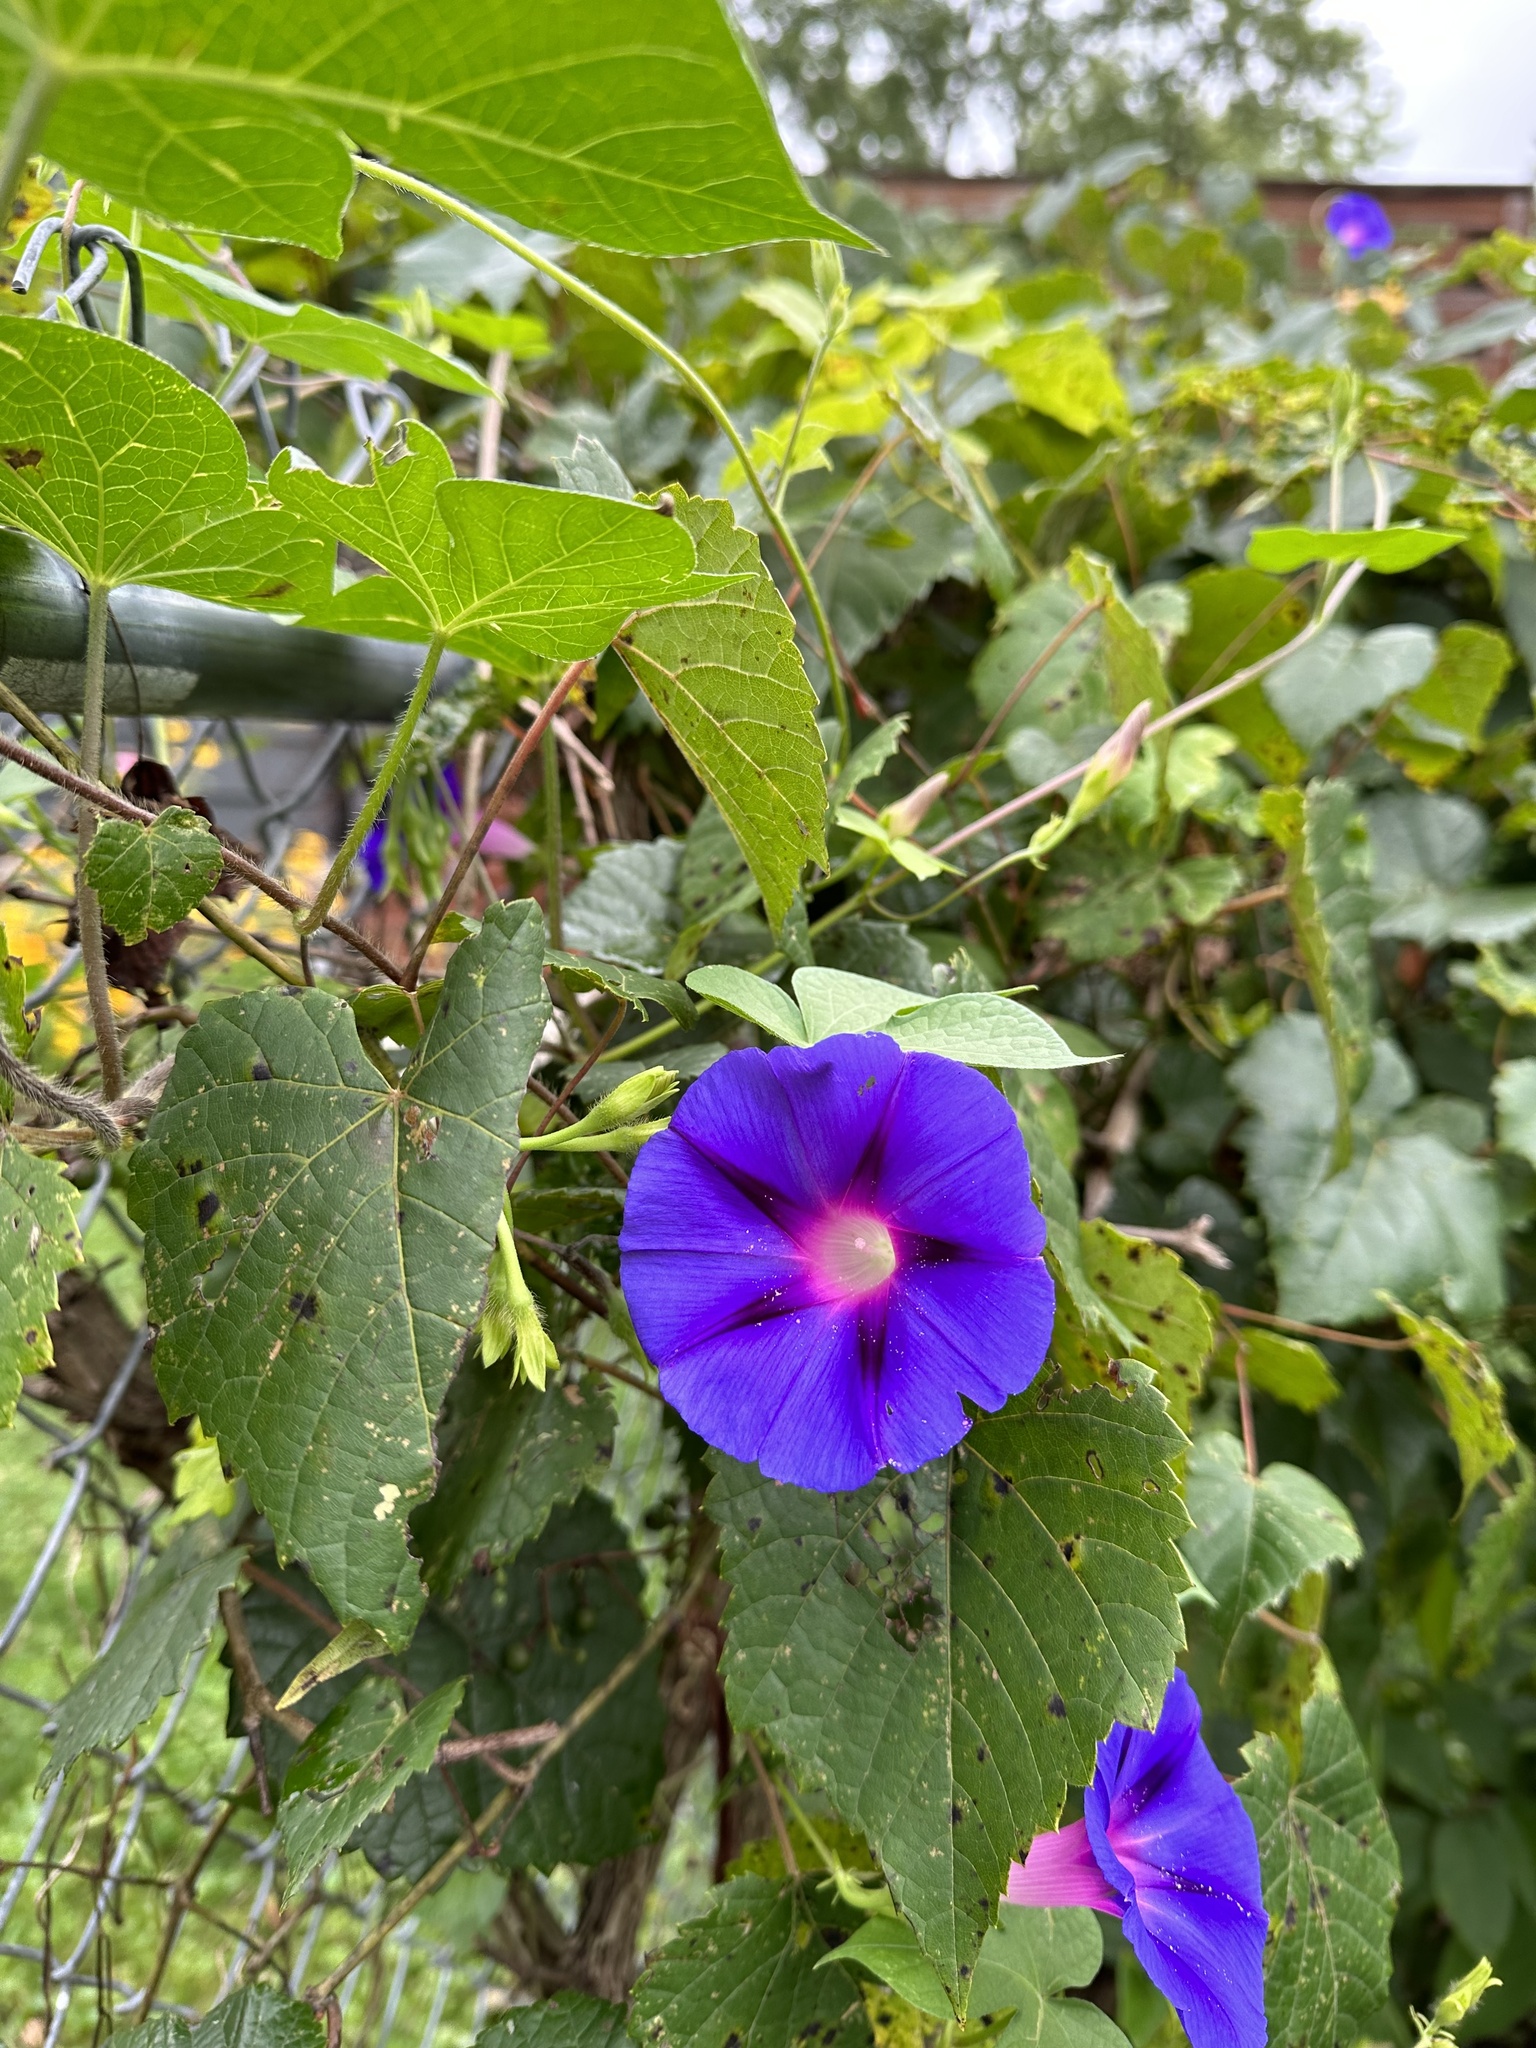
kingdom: Plantae
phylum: Tracheophyta
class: Magnoliopsida
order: Solanales
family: Convolvulaceae
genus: Ipomoea
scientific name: Ipomoea purpurea
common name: Common morning-glory
